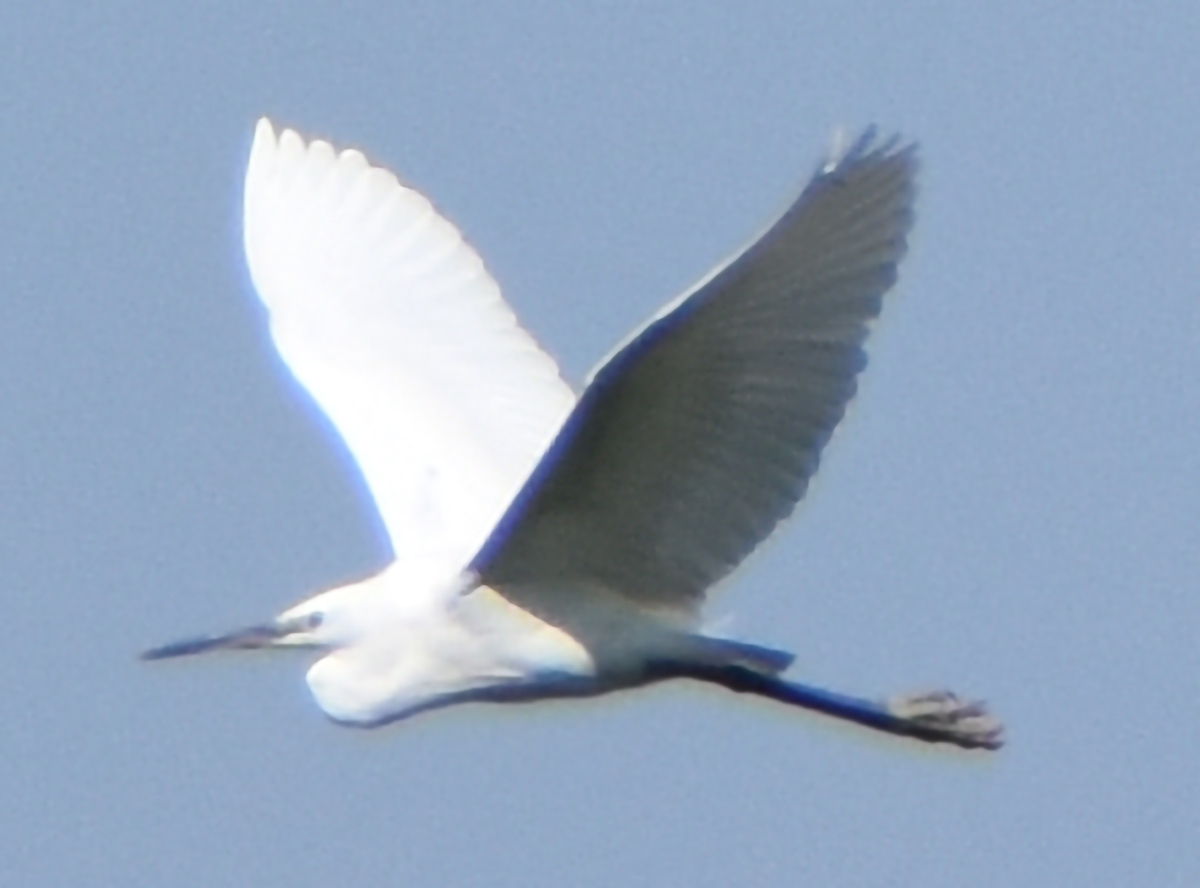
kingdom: Animalia
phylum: Chordata
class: Aves
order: Pelecaniformes
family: Ardeidae
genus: Egretta
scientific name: Egretta garzetta
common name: Little egret
